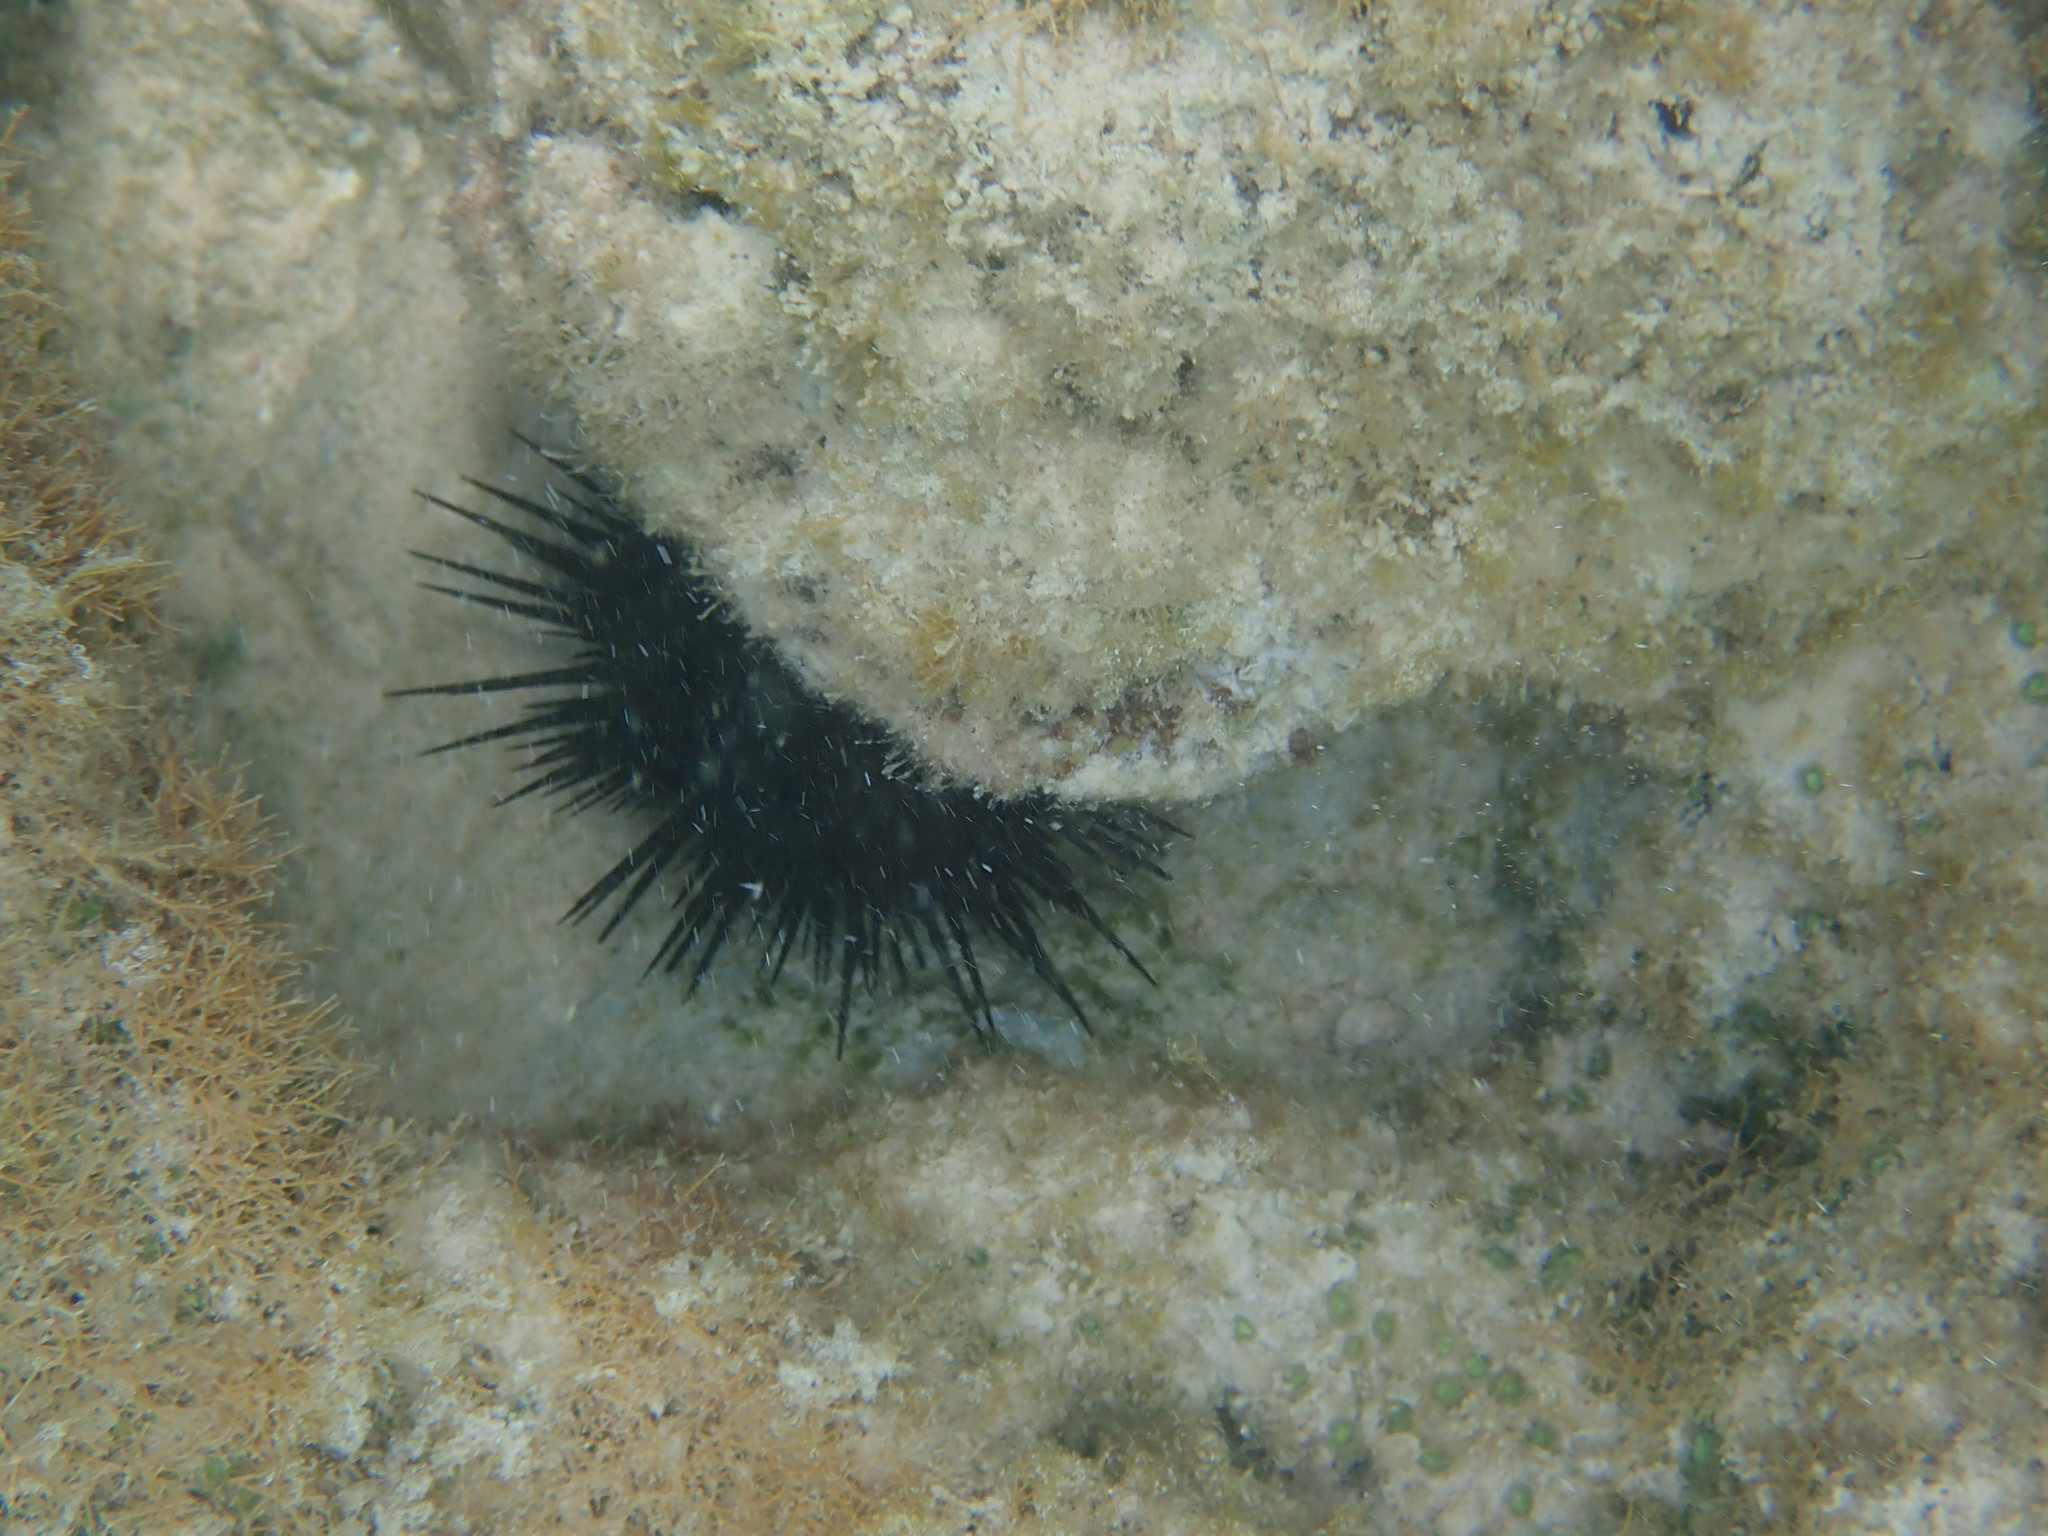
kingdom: Animalia
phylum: Echinodermata
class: Echinoidea
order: Camarodonta
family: Echinometridae
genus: Echinometra
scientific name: Echinometra lucunter
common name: Rock urchin
